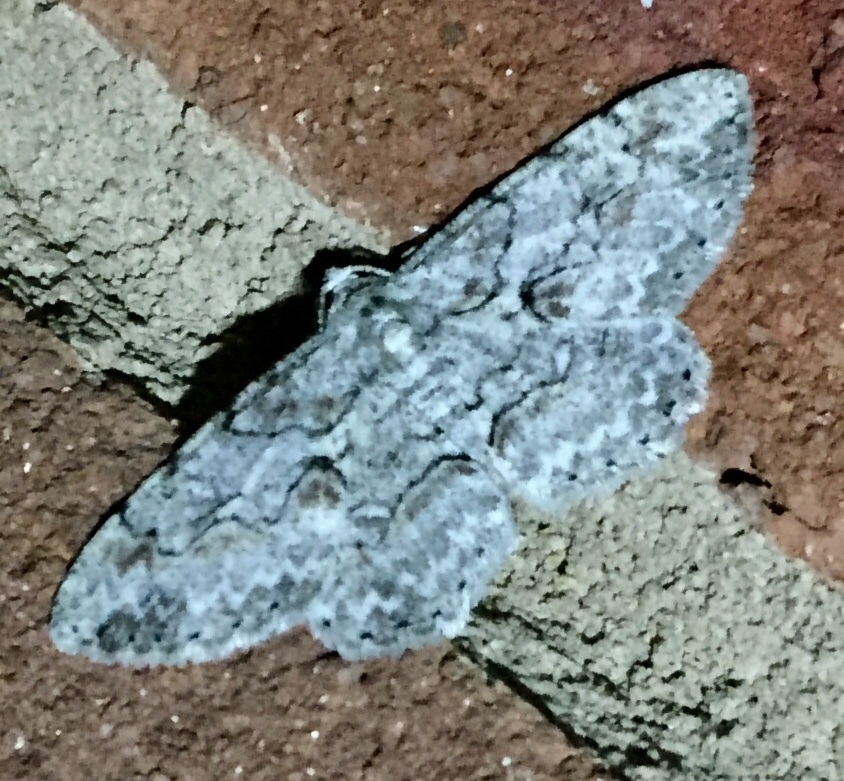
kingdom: Animalia
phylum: Arthropoda
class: Insecta
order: Lepidoptera
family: Geometridae
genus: Iridopsis
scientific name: Iridopsis defectaria
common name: Brown-shaded gray
